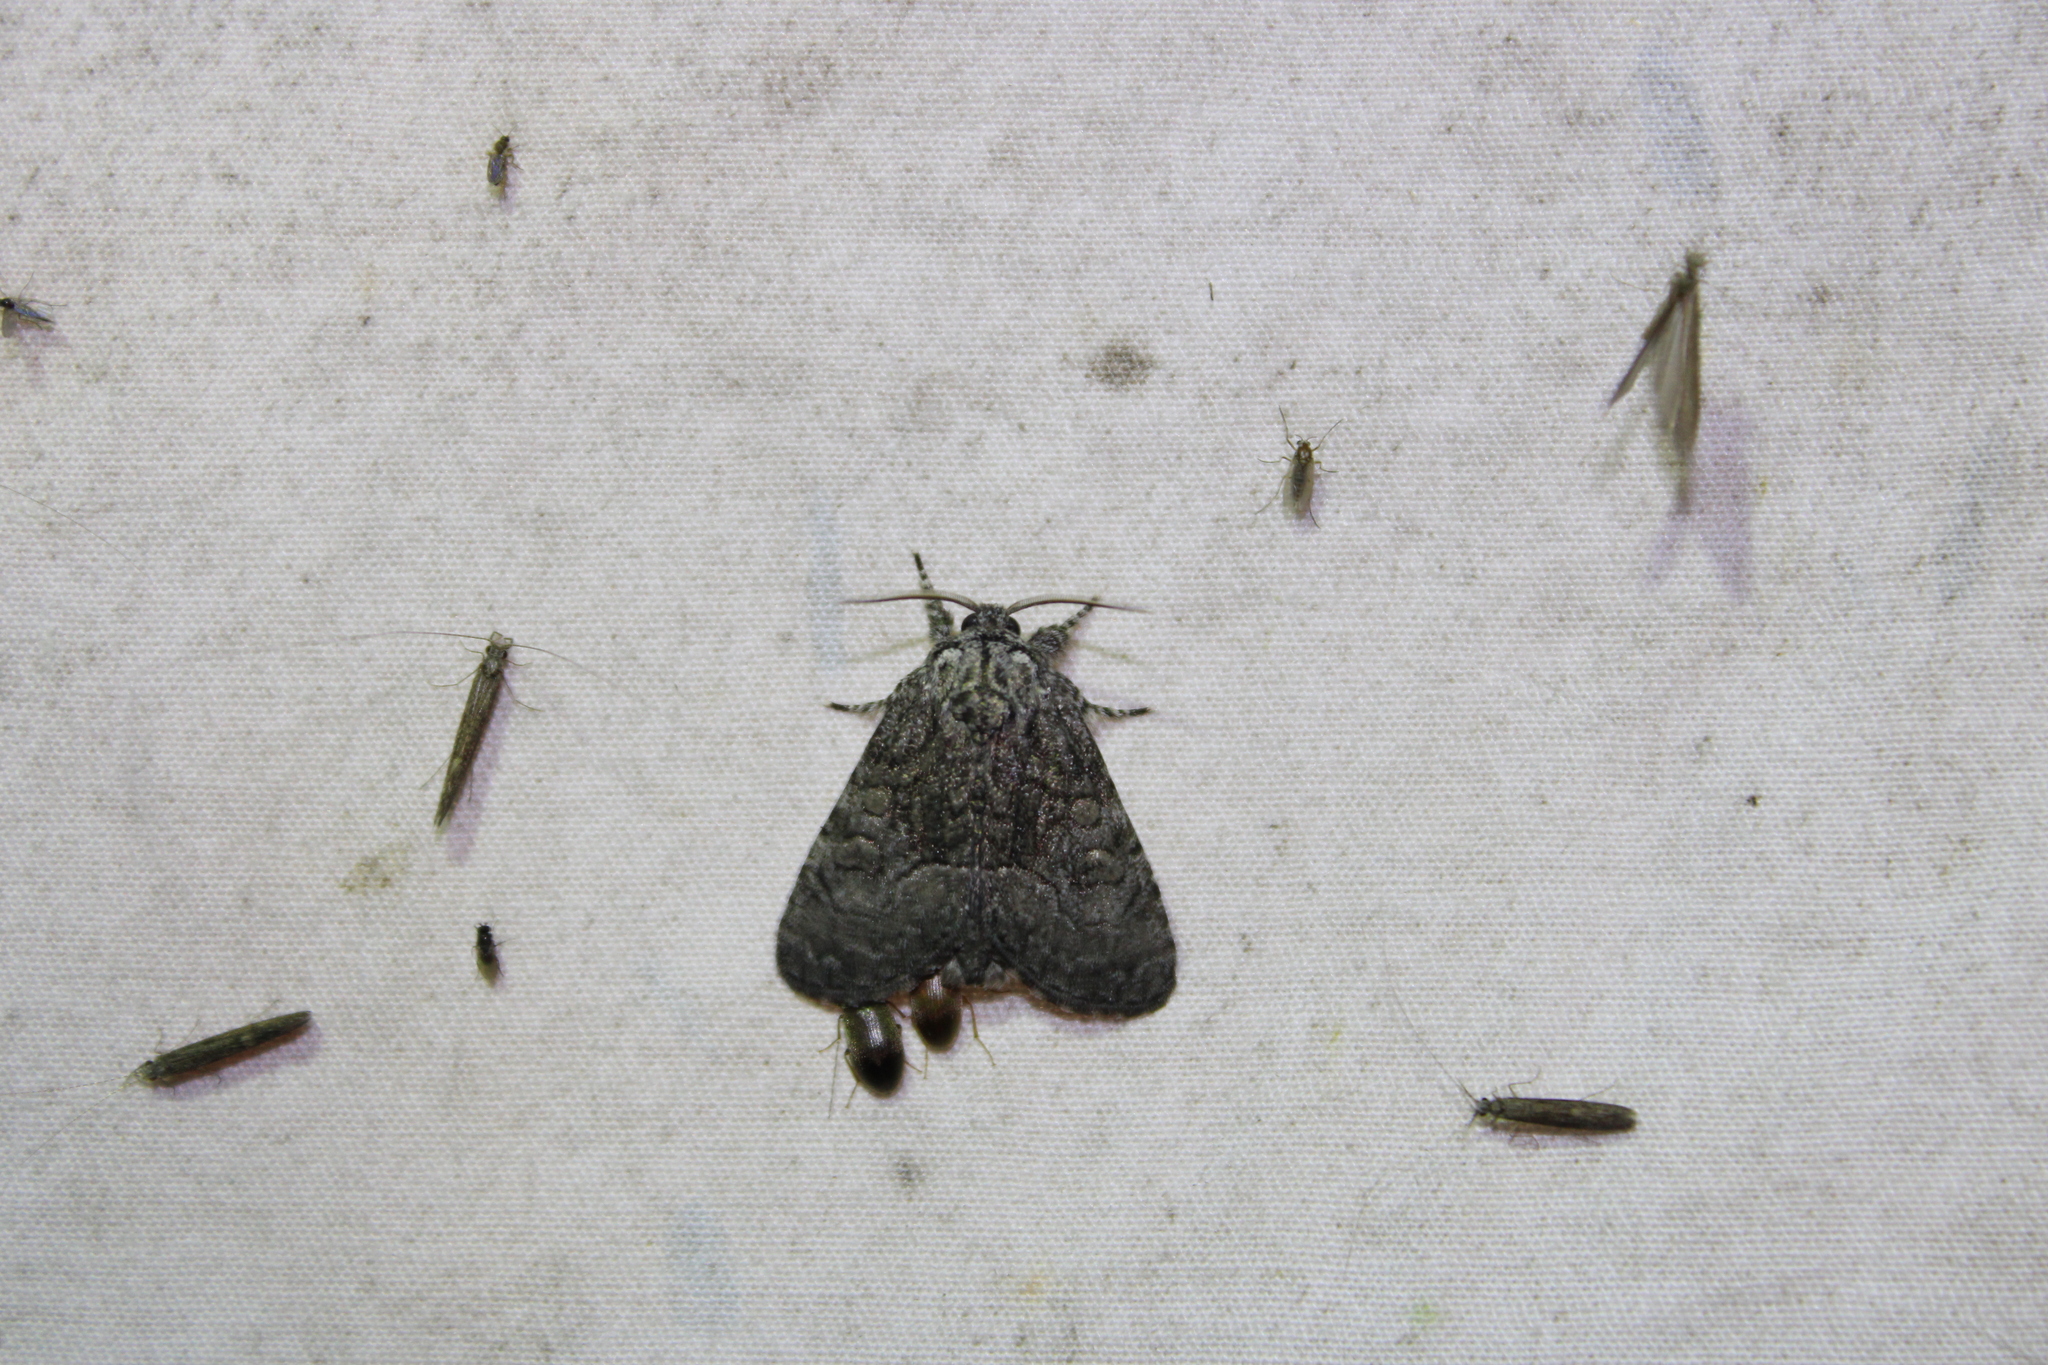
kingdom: Animalia
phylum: Arthropoda
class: Insecta
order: Lepidoptera
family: Noctuidae
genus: Raphia
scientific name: Raphia frater
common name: Brother
